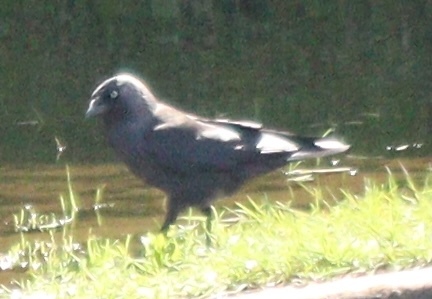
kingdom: Animalia
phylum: Chordata
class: Aves
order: Passeriformes
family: Corvidae
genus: Coloeus
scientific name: Coloeus monedula
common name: Western jackdaw
